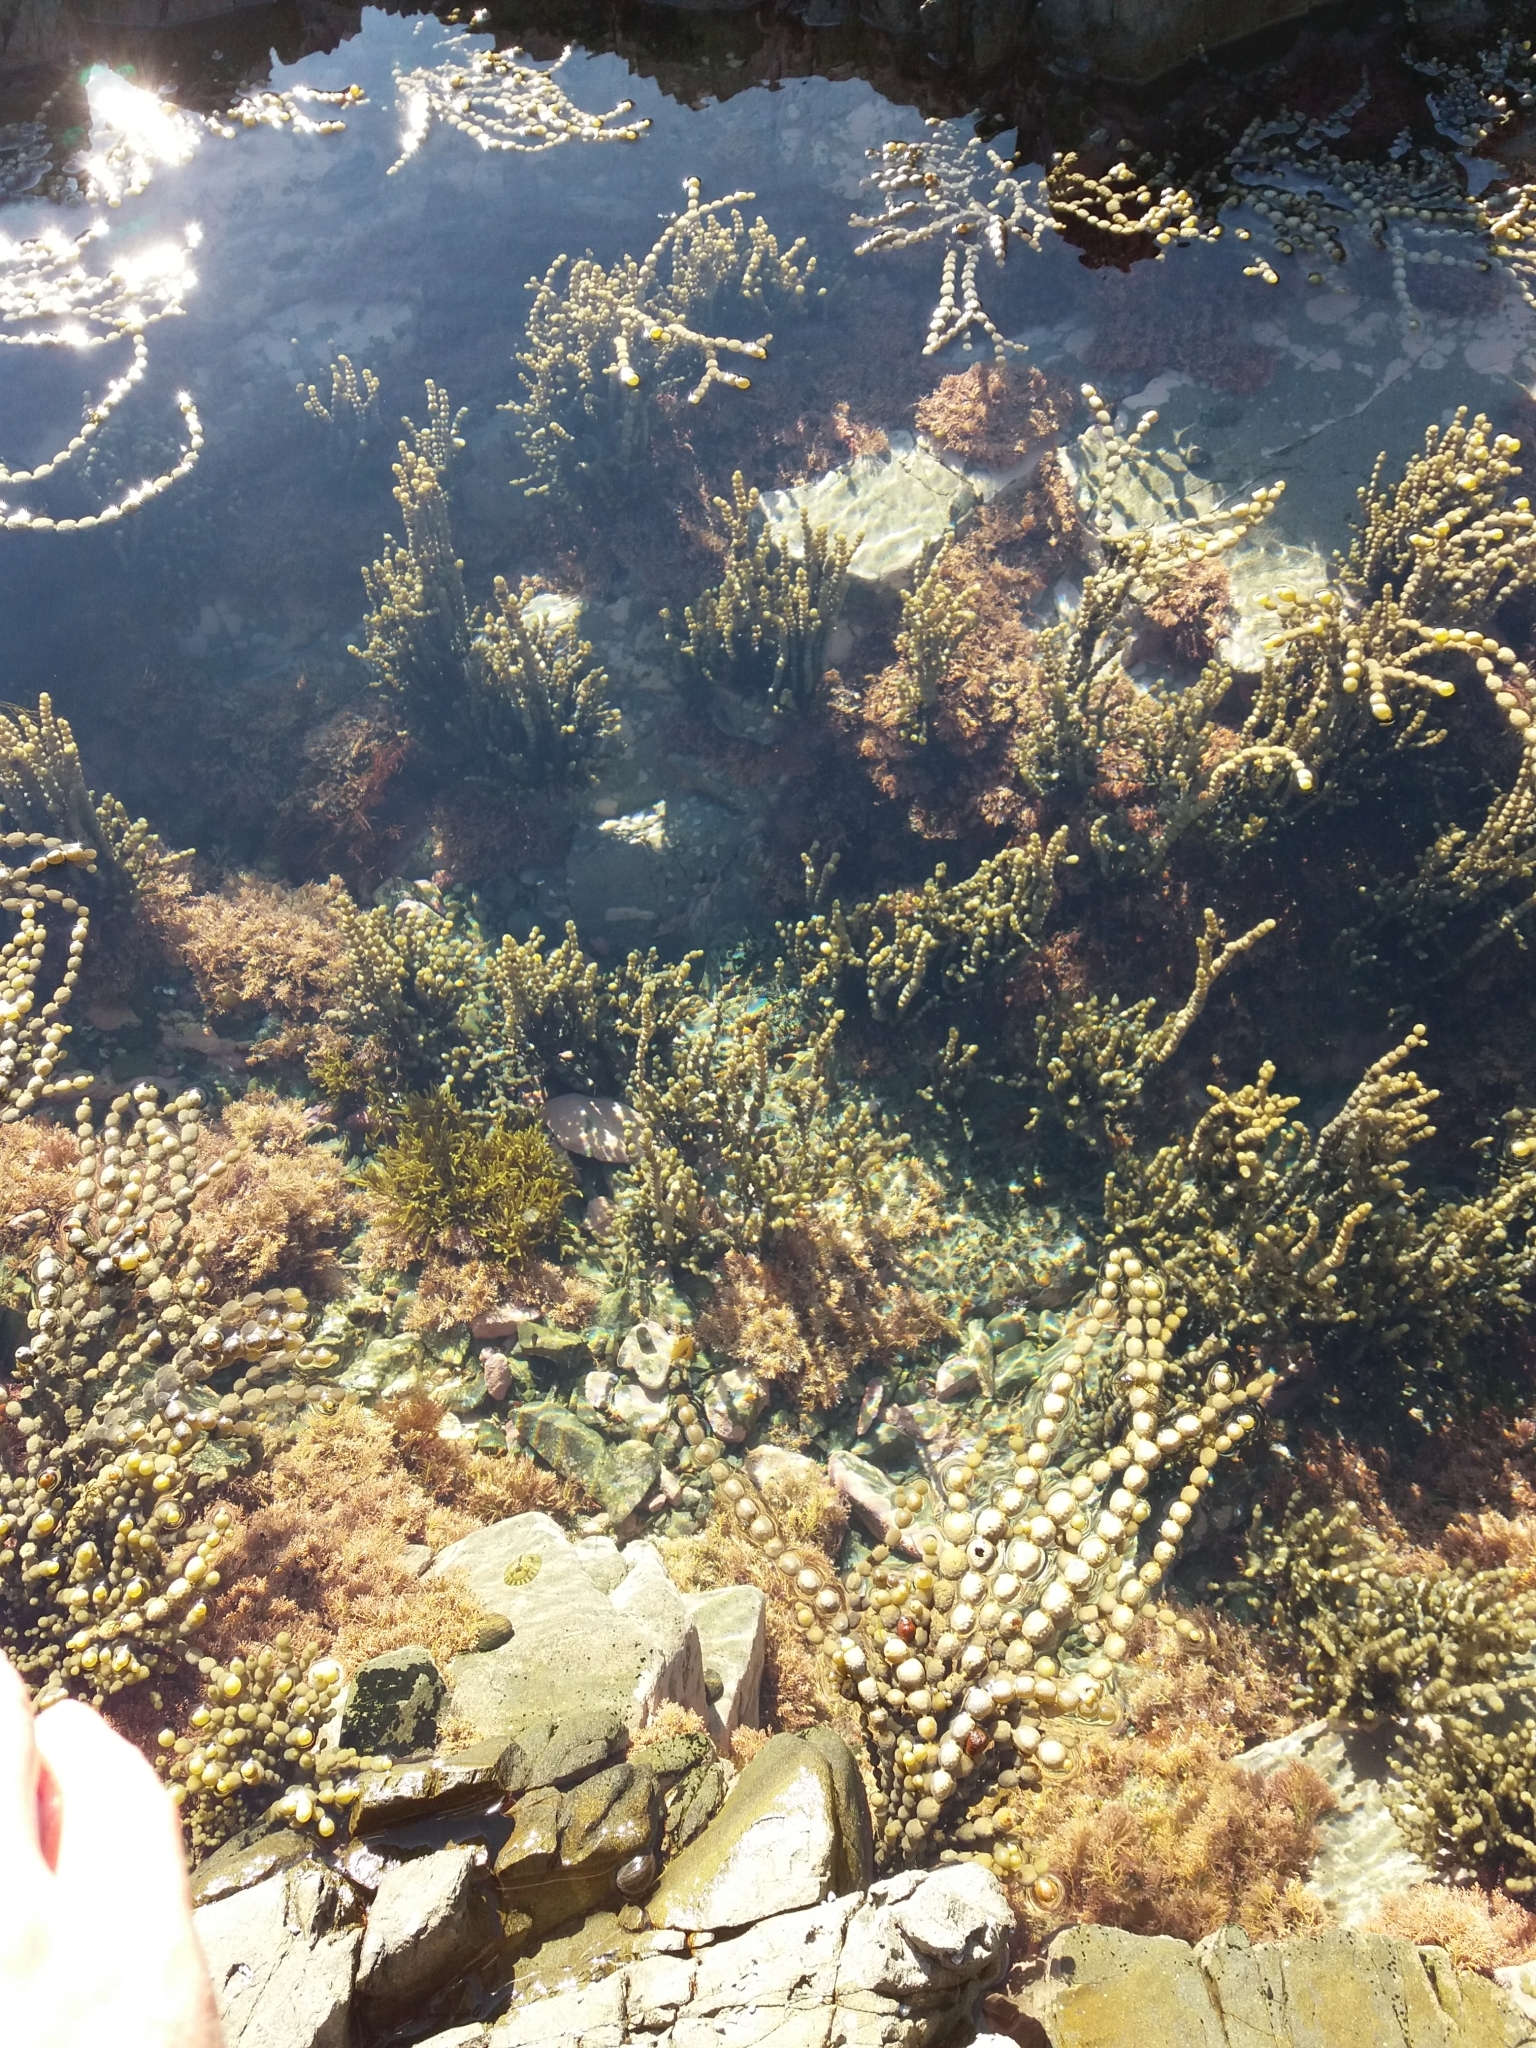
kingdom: Chromista
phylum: Ochrophyta
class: Phaeophyceae
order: Fucales
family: Hormosiraceae
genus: Hormosira
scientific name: Hormosira banksii
